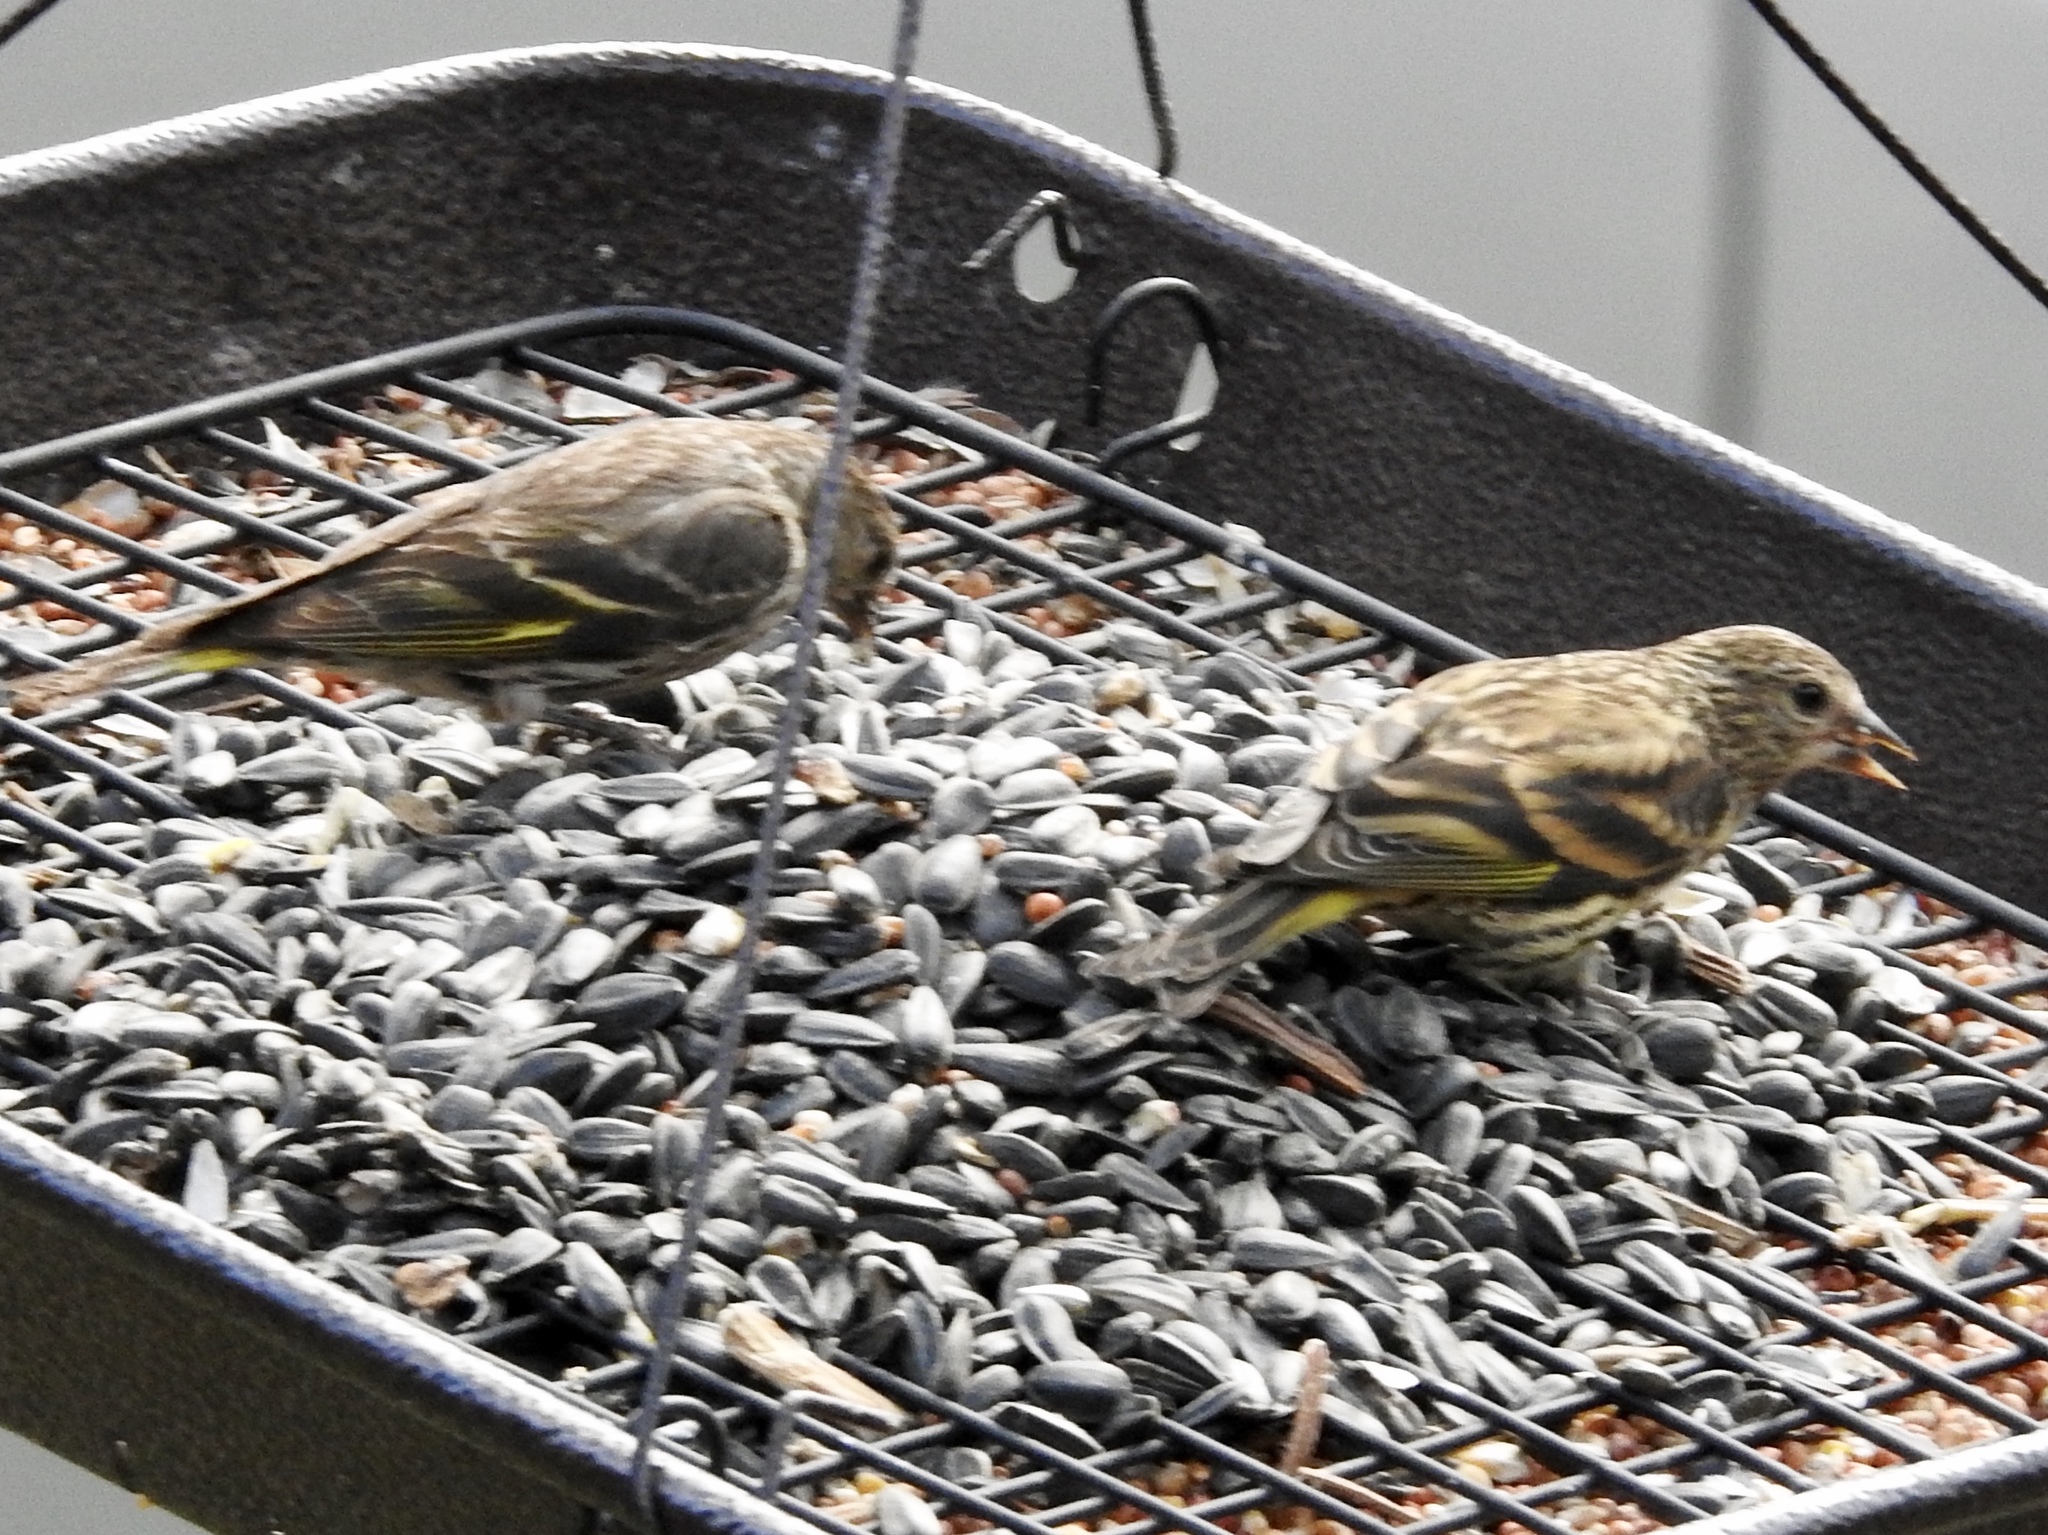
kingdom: Animalia
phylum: Chordata
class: Aves
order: Passeriformes
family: Fringillidae
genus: Spinus
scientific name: Spinus pinus
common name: Pine siskin
